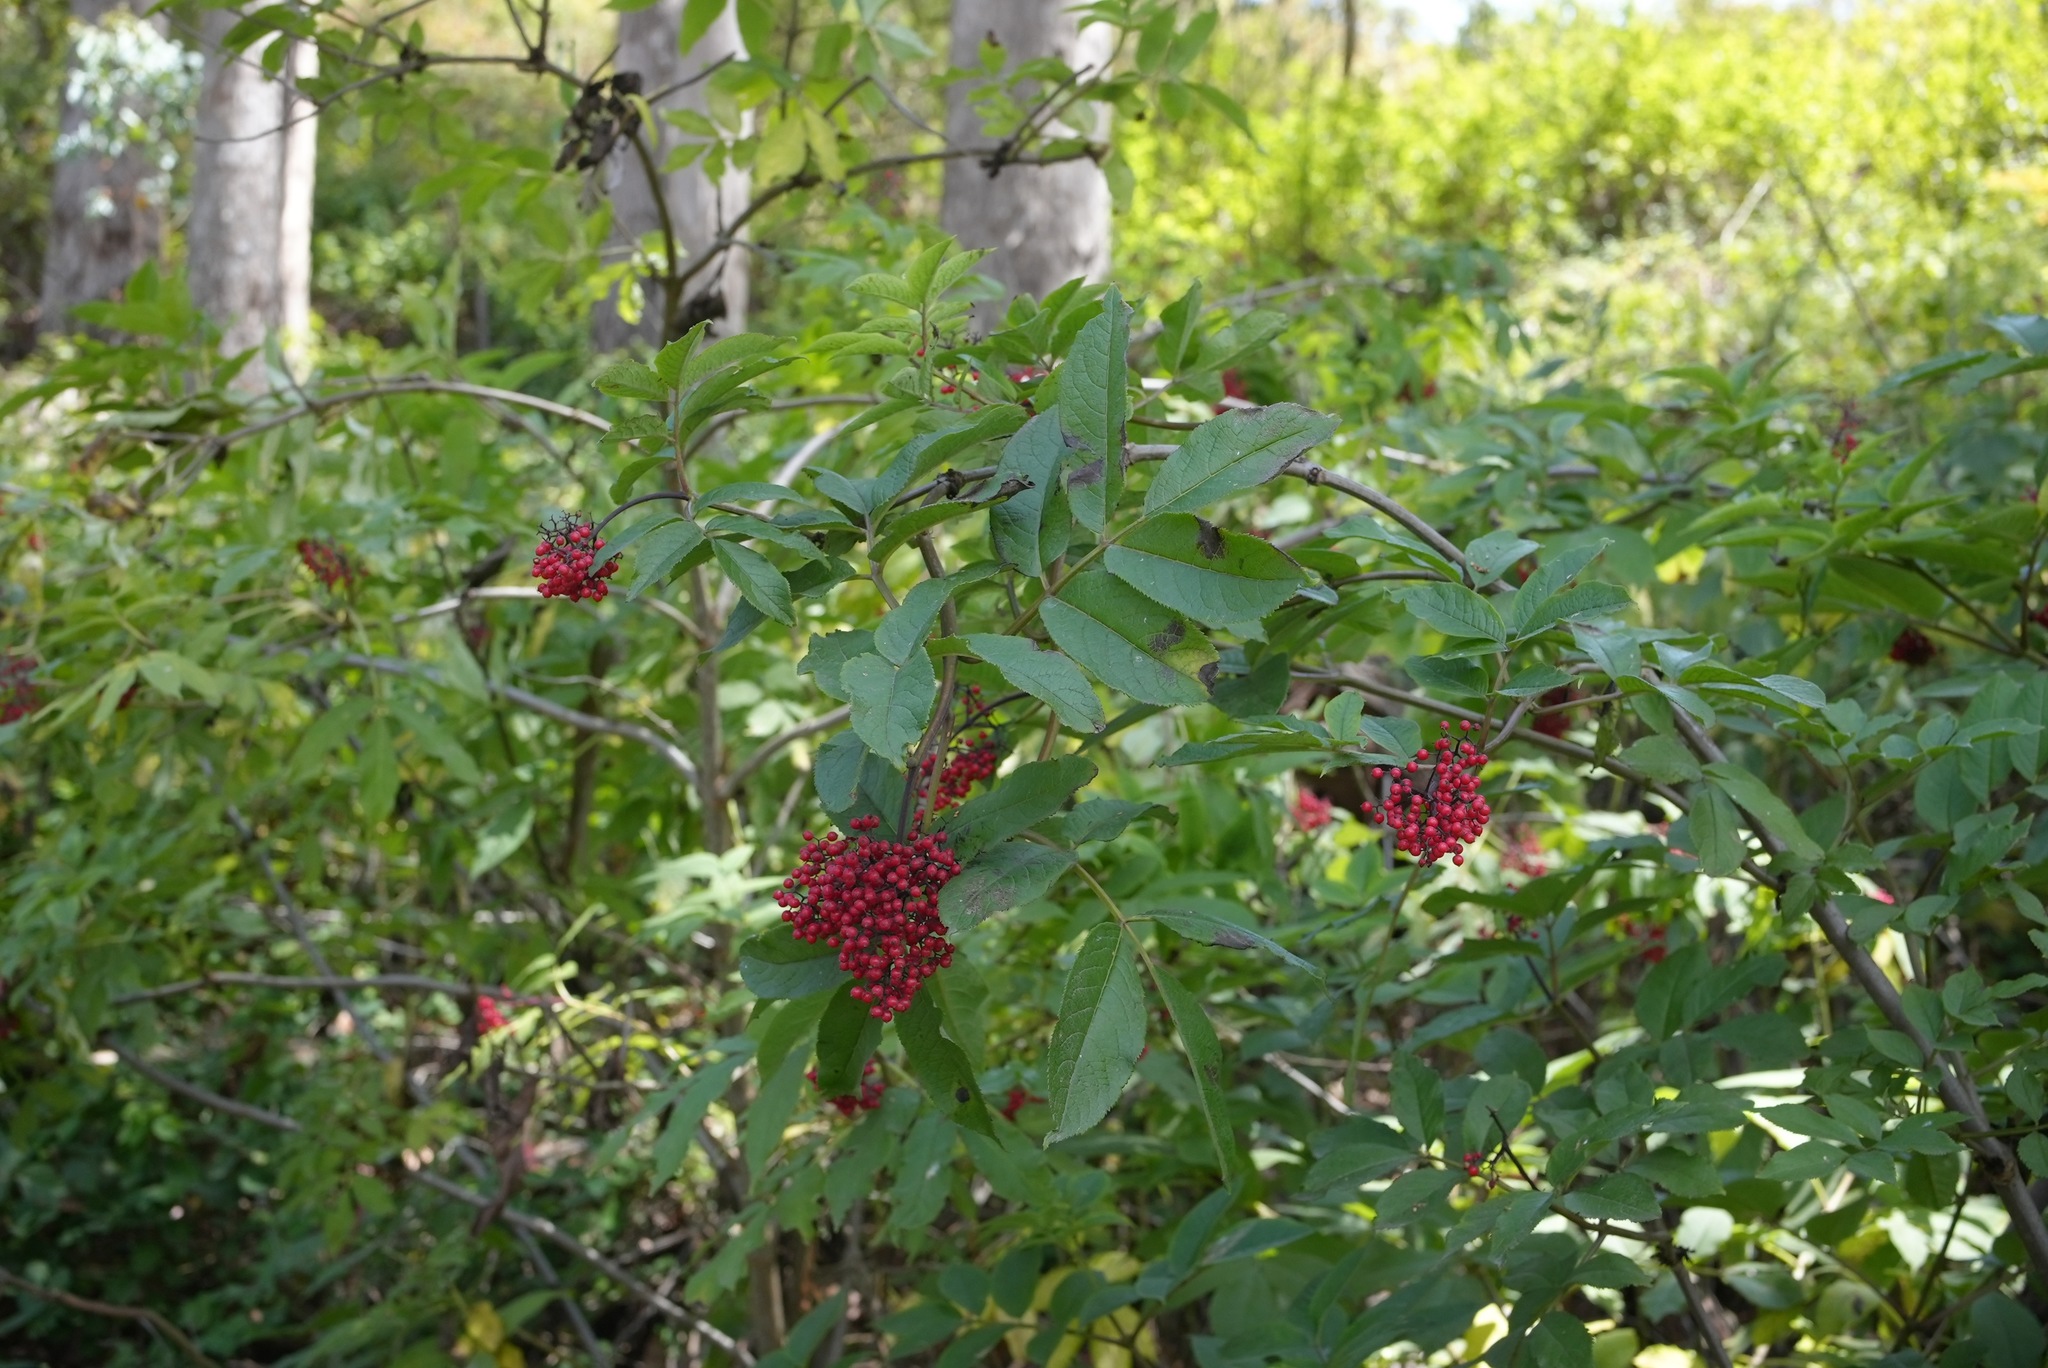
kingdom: Plantae
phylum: Tracheophyta
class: Magnoliopsida
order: Dipsacales
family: Viburnaceae
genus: Sambucus
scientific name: Sambucus racemosa
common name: Red-berried elder
